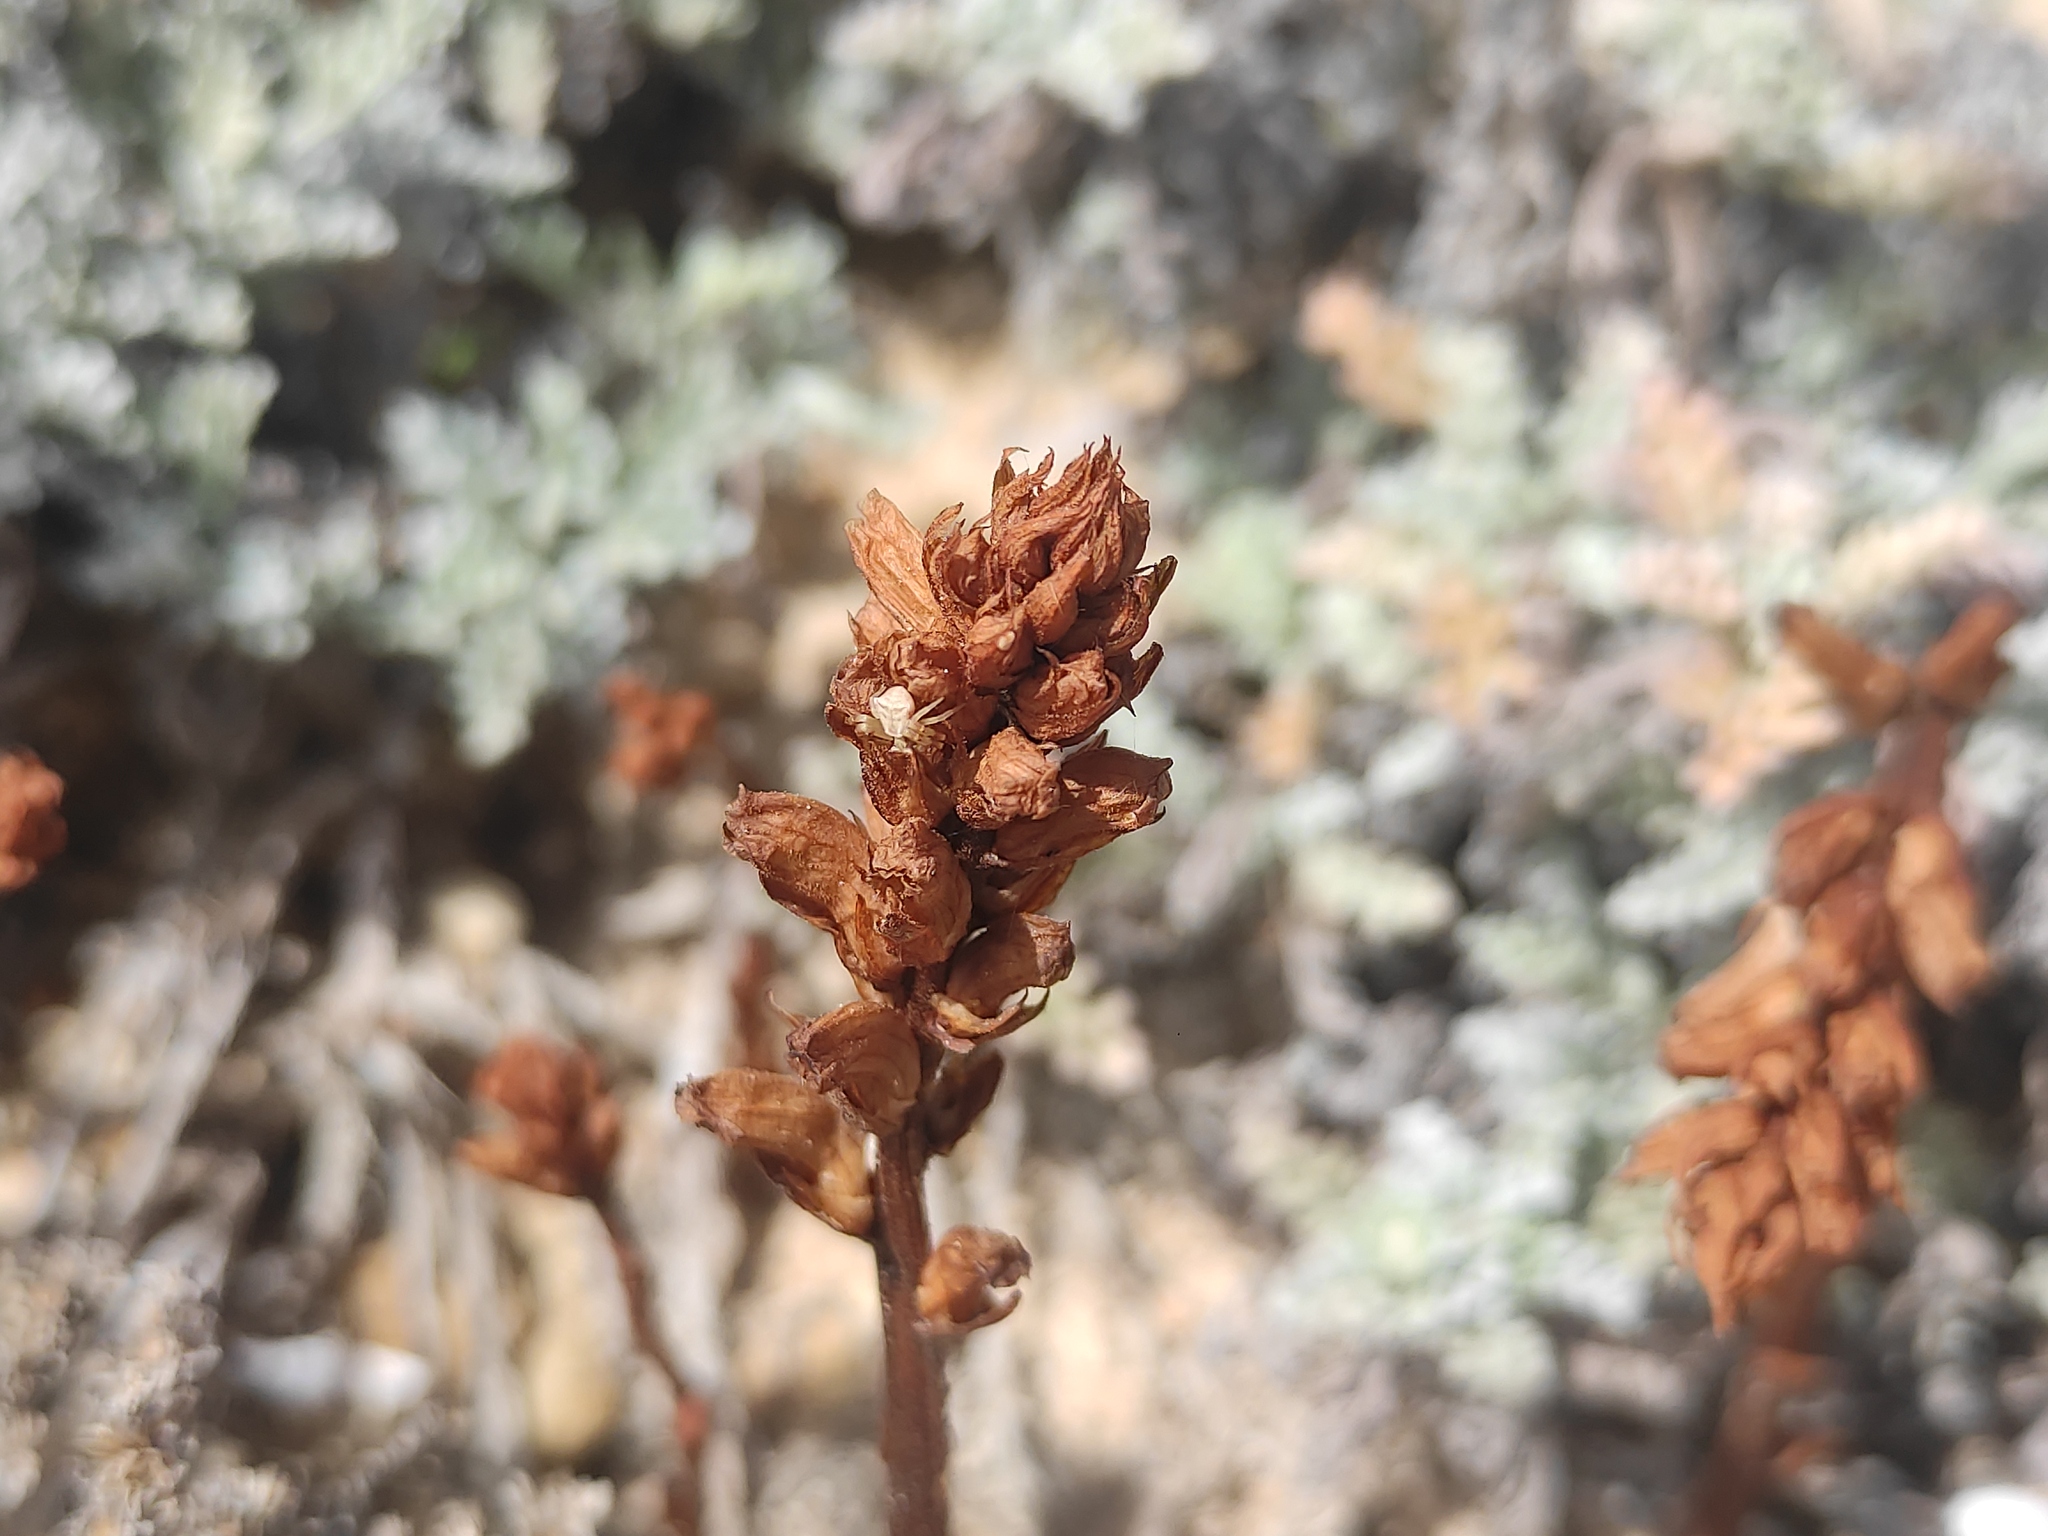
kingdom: Plantae
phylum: Tracheophyta
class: Magnoliopsida
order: Lamiales
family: Orobanchaceae
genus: Orobanche
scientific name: Orobanche cernua
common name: Australian broomrape
